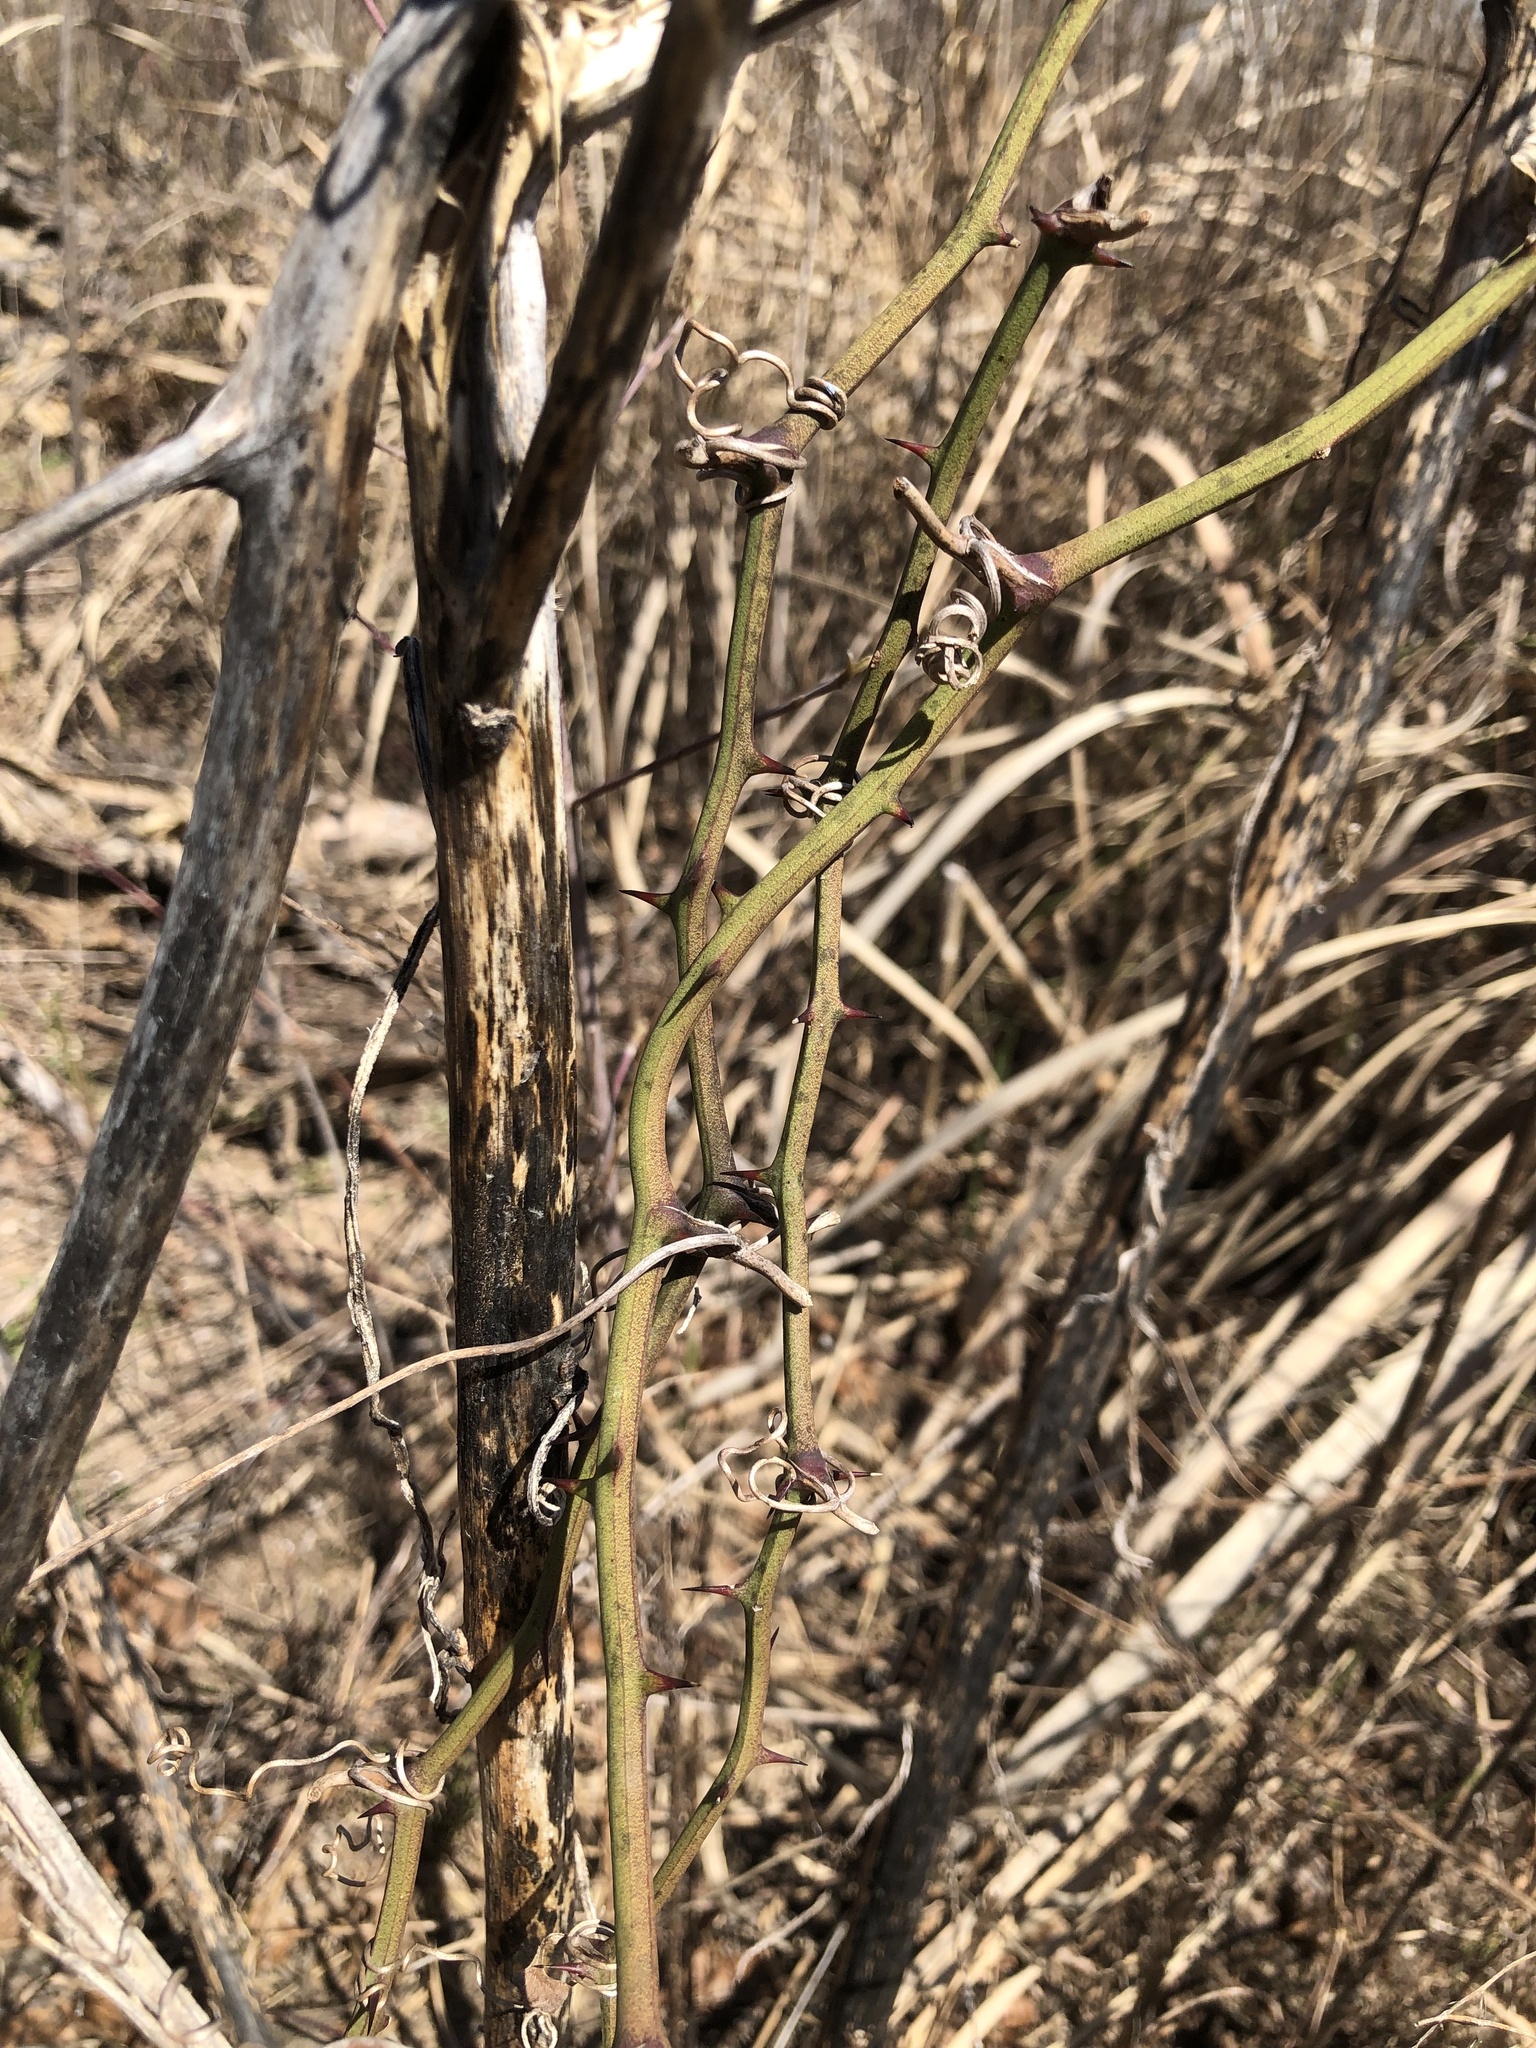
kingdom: Plantae
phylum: Tracheophyta
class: Liliopsida
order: Liliales
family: Smilacaceae
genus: Smilax
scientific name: Smilax bona-nox
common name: Catbrier
